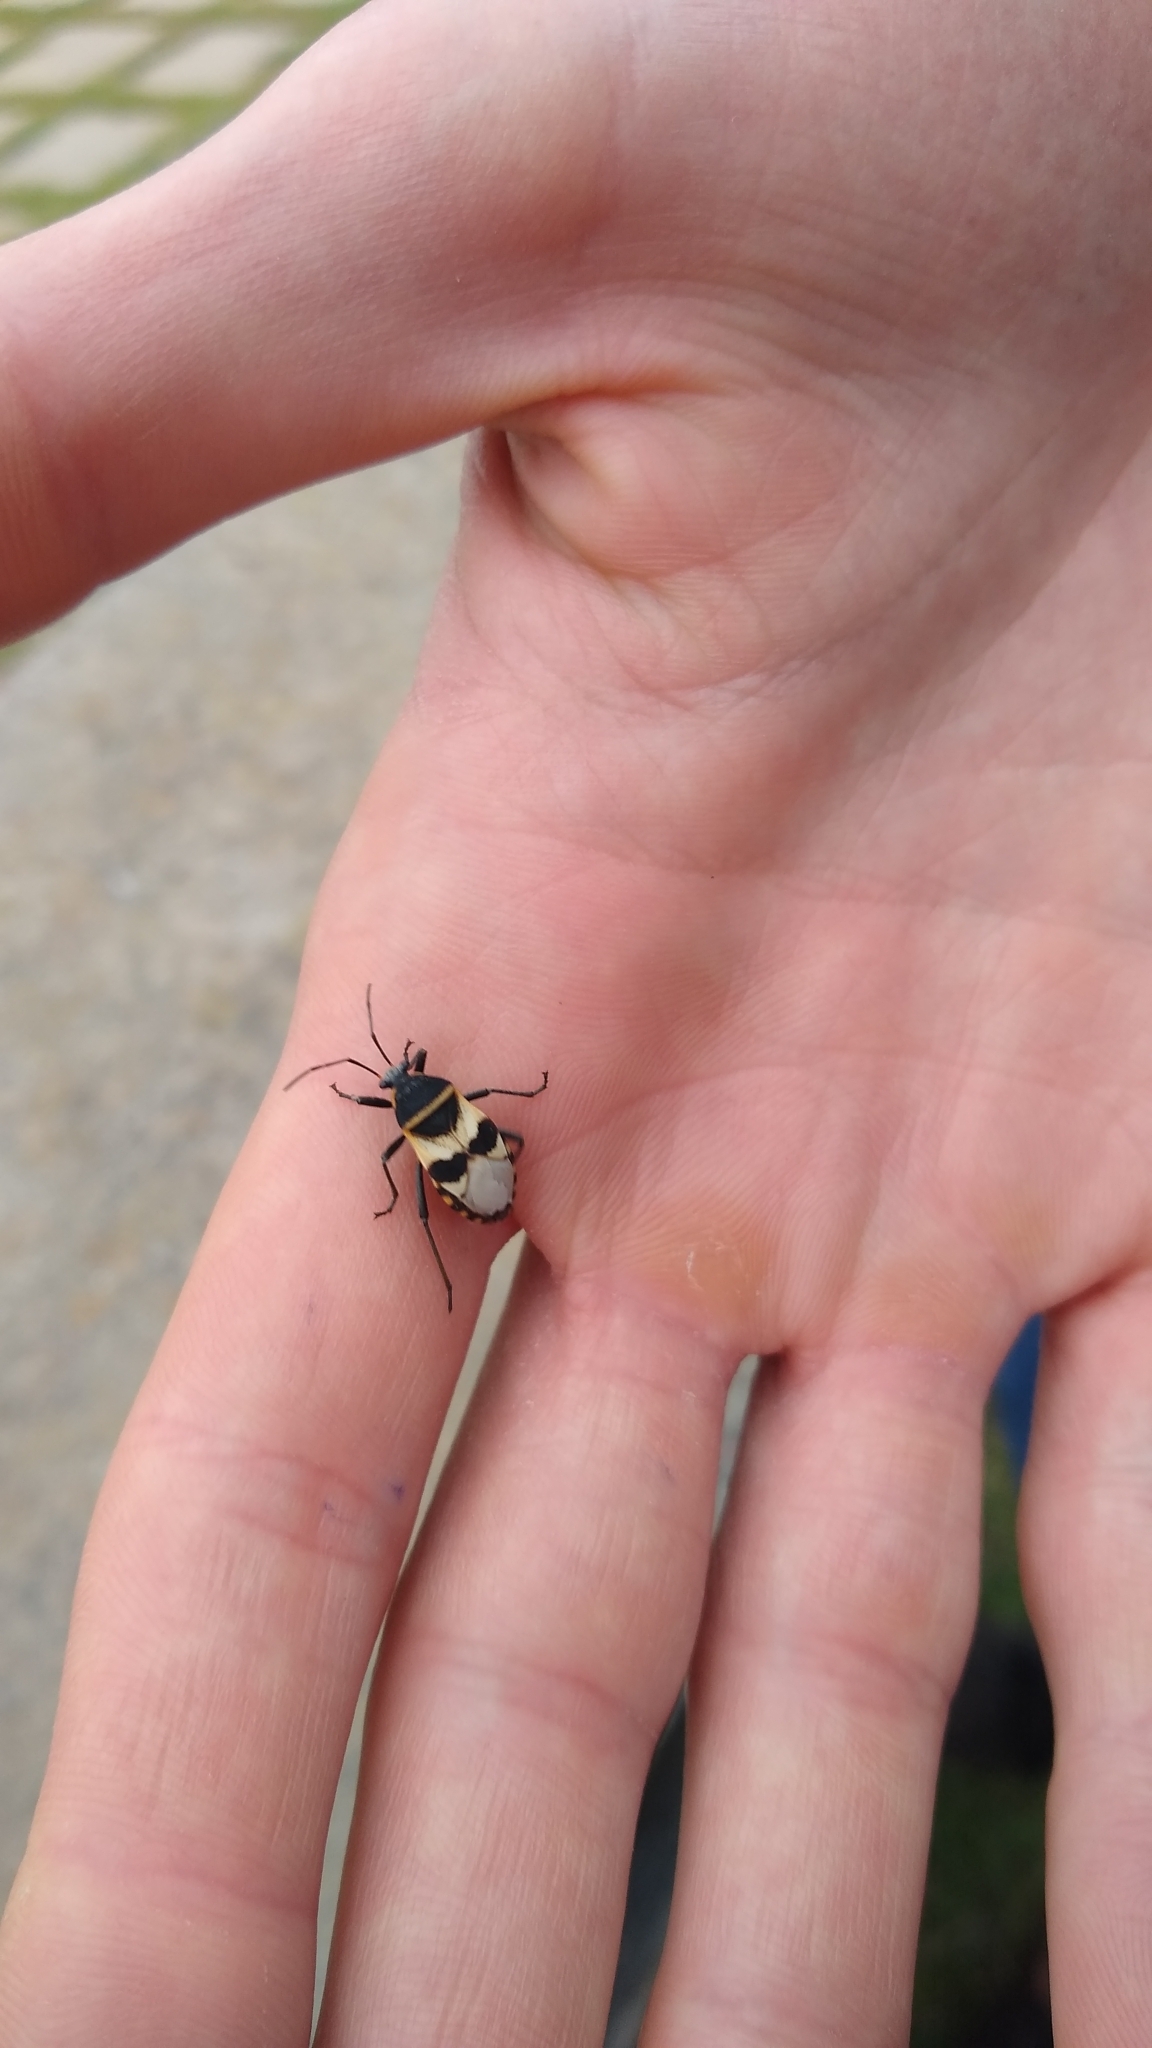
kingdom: Animalia
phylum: Arthropoda
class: Insecta
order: Hemiptera
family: Largidae
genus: Largus
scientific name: Largus fasciatus
